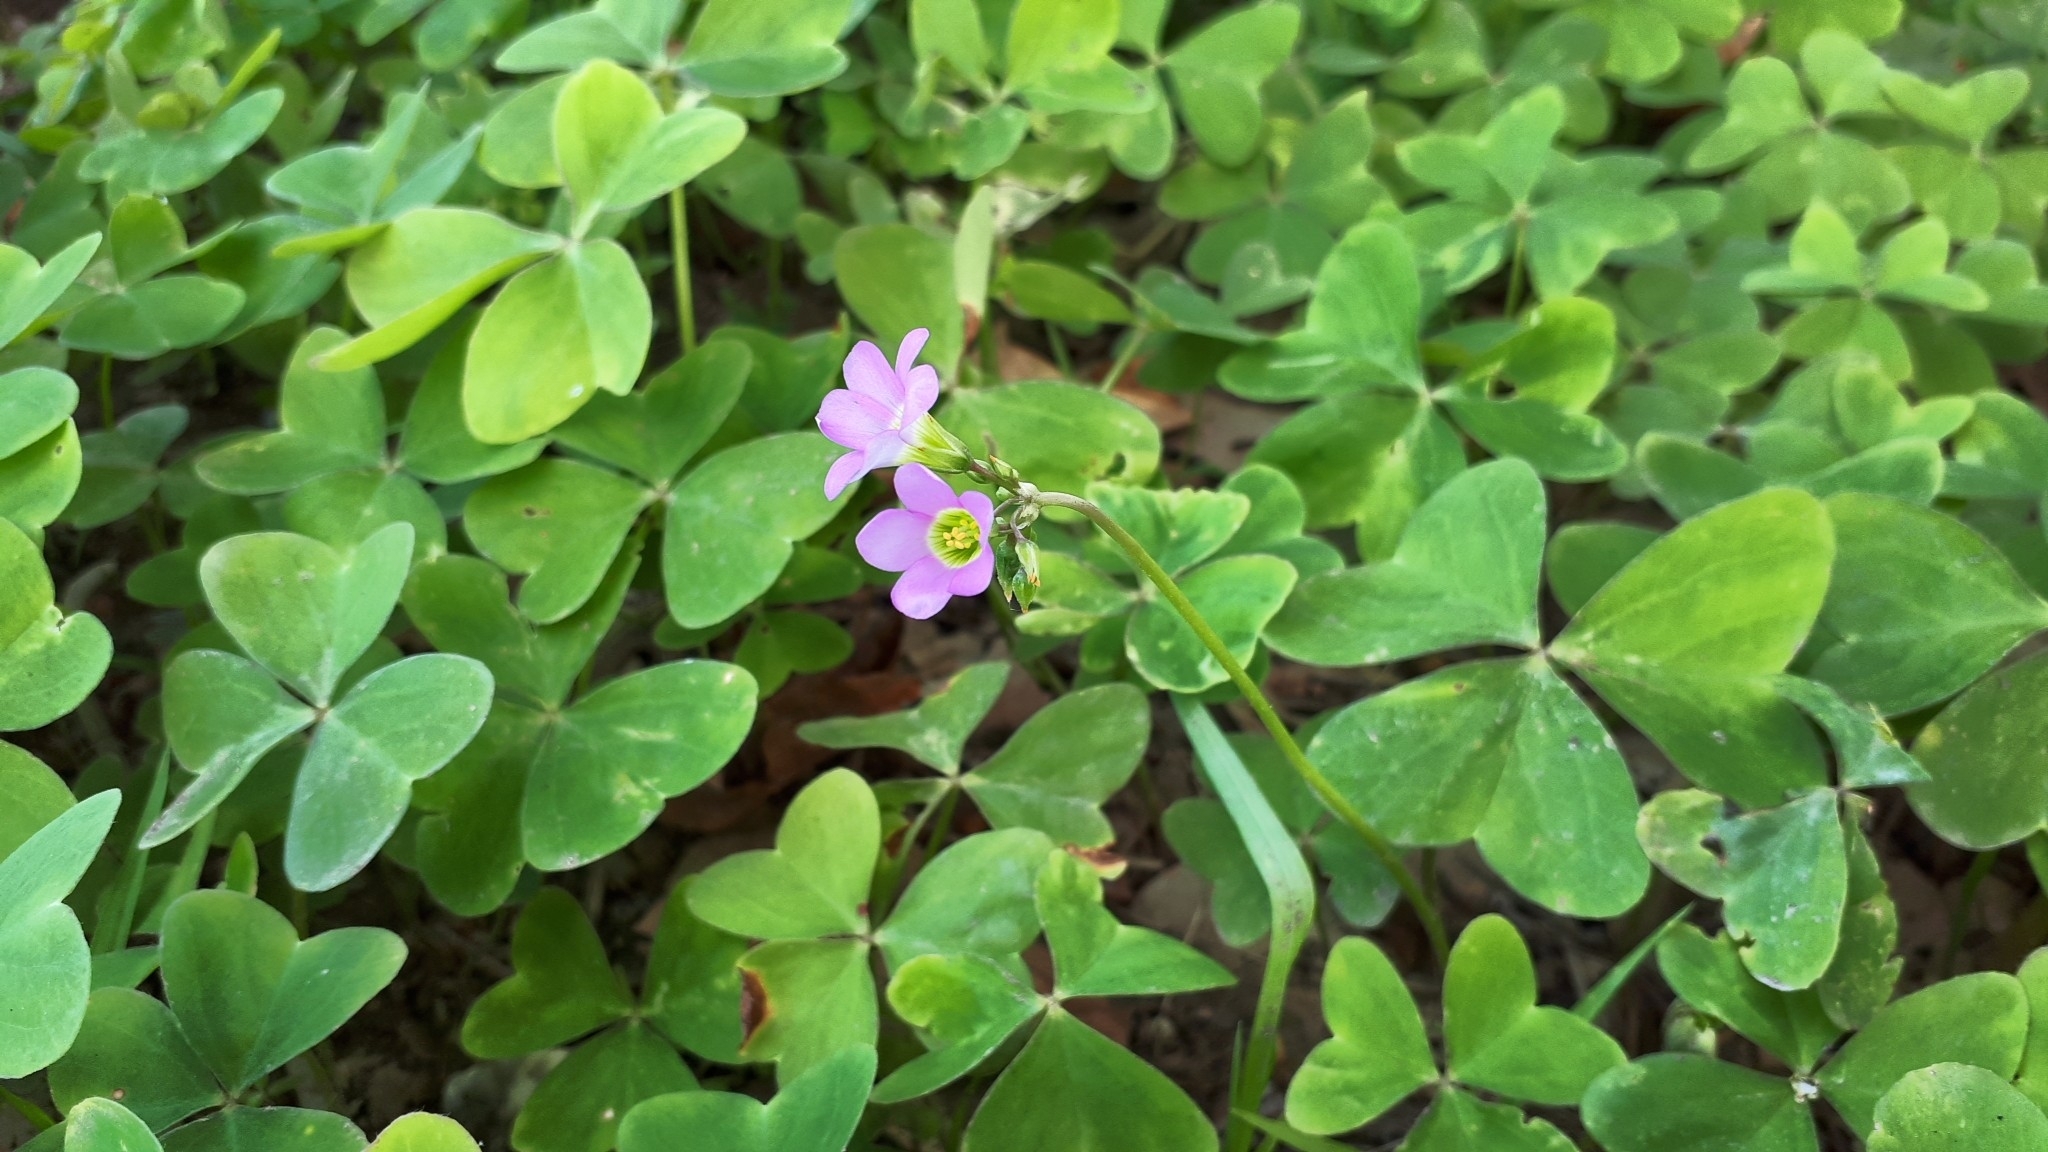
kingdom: Plantae
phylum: Tracheophyta
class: Magnoliopsida
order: Oxalidales
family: Oxalidaceae
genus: Oxalis
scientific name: Oxalis latifolia
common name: Garden pink-sorrel
